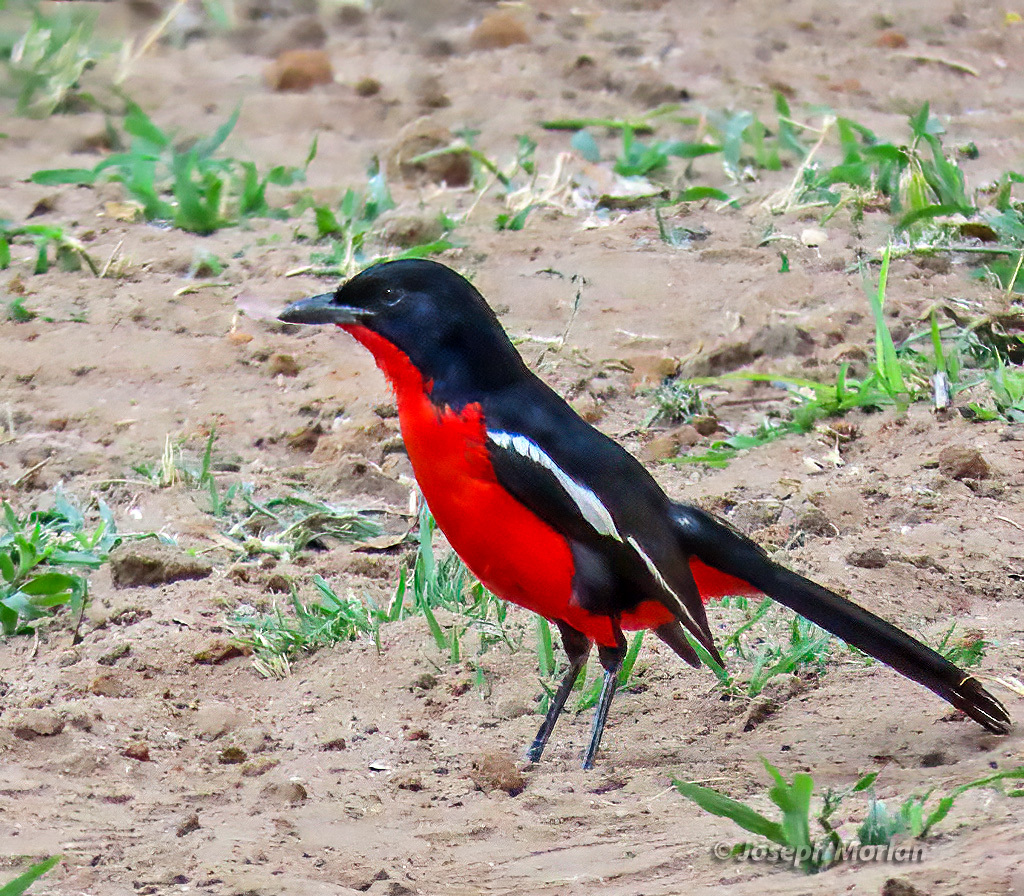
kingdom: Animalia
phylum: Chordata
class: Aves
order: Passeriformes
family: Malaconotidae
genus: Laniarius
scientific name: Laniarius atrococcineus
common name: Crimson-breasted shrike
